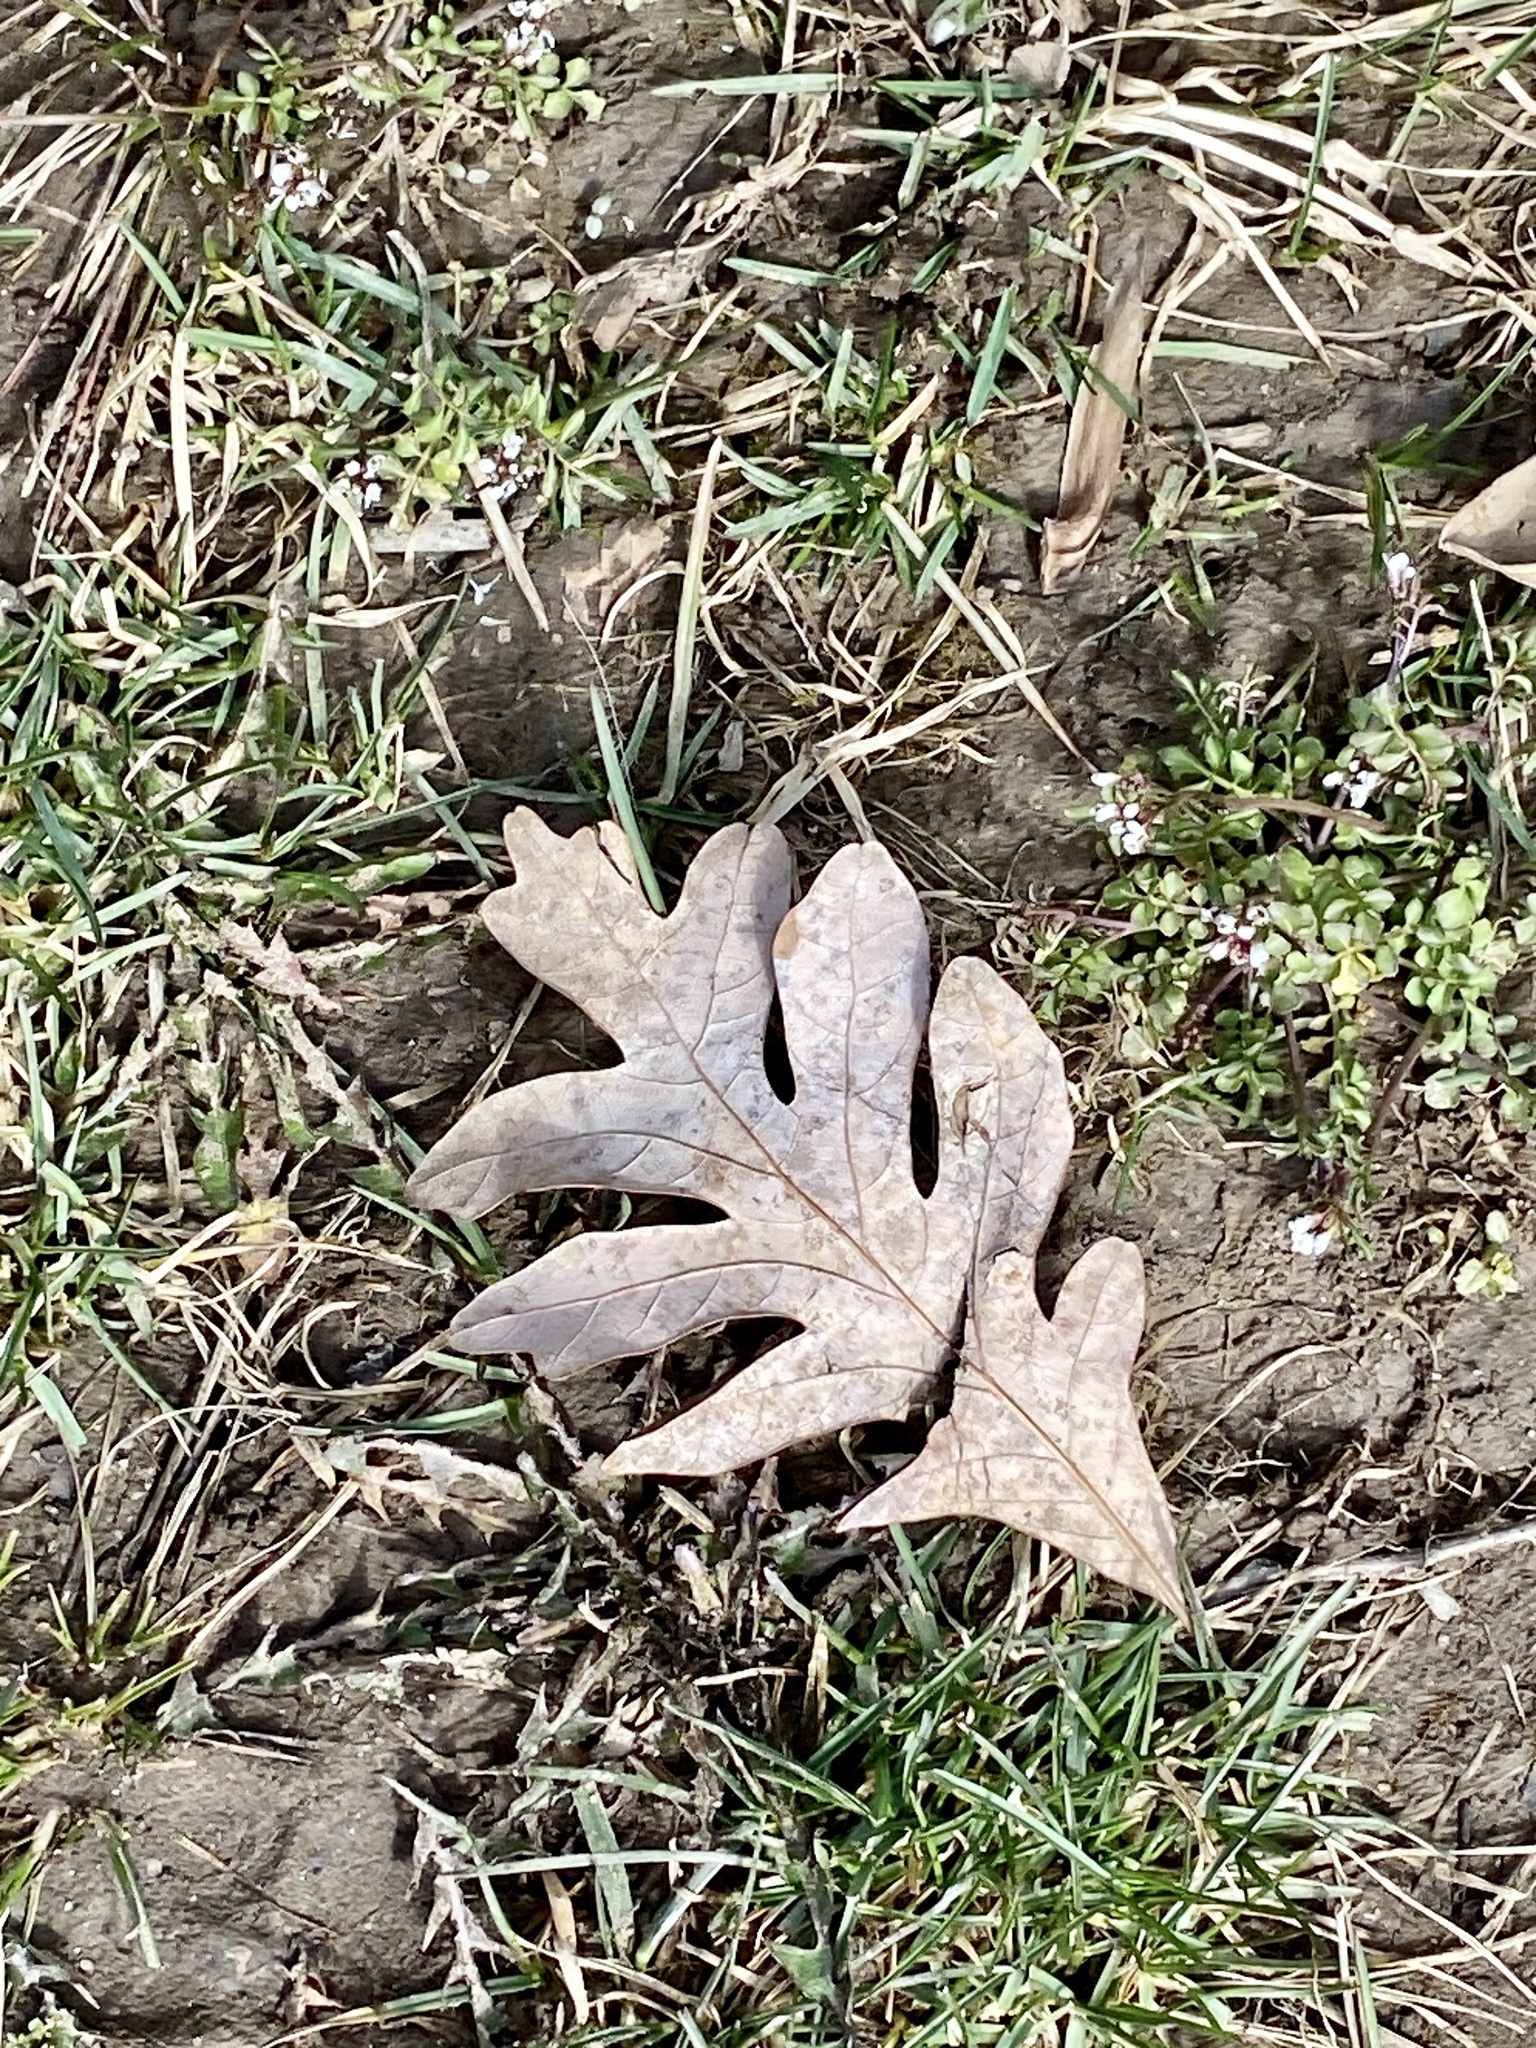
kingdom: Plantae
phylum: Tracheophyta
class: Magnoliopsida
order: Fagales
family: Fagaceae
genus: Quercus
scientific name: Quercus alba
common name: White oak
